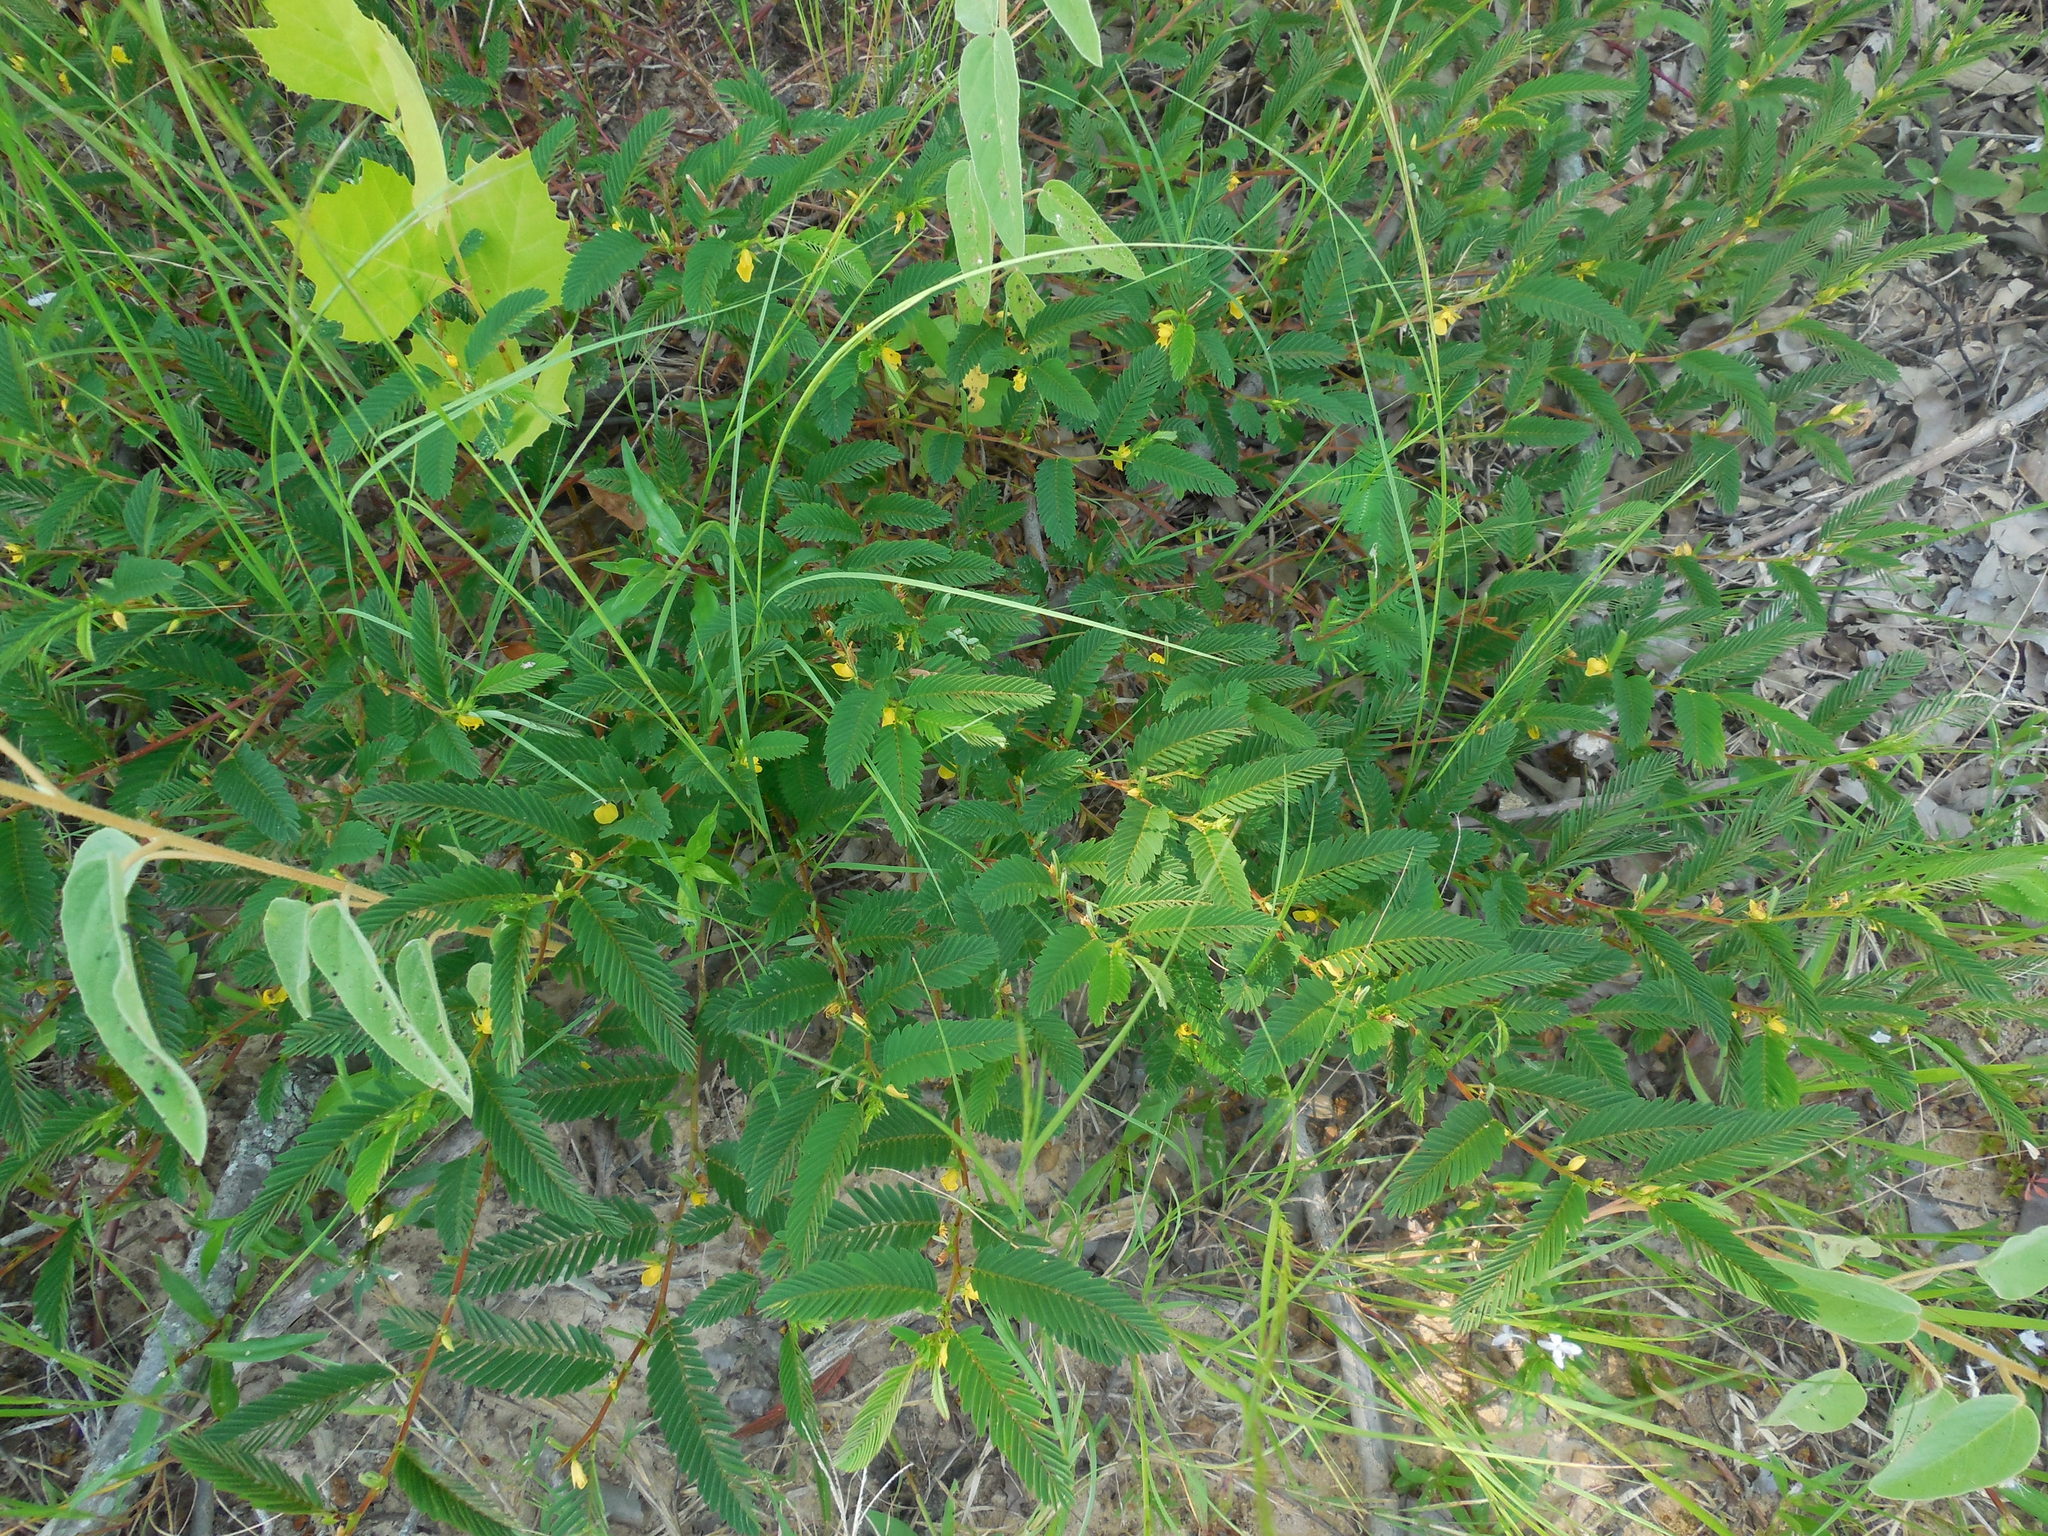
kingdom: Plantae
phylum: Tracheophyta
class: Magnoliopsida
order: Fabales
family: Fabaceae
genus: Chamaecrista
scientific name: Chamaecrista nictitans
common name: Sensitive cassia
